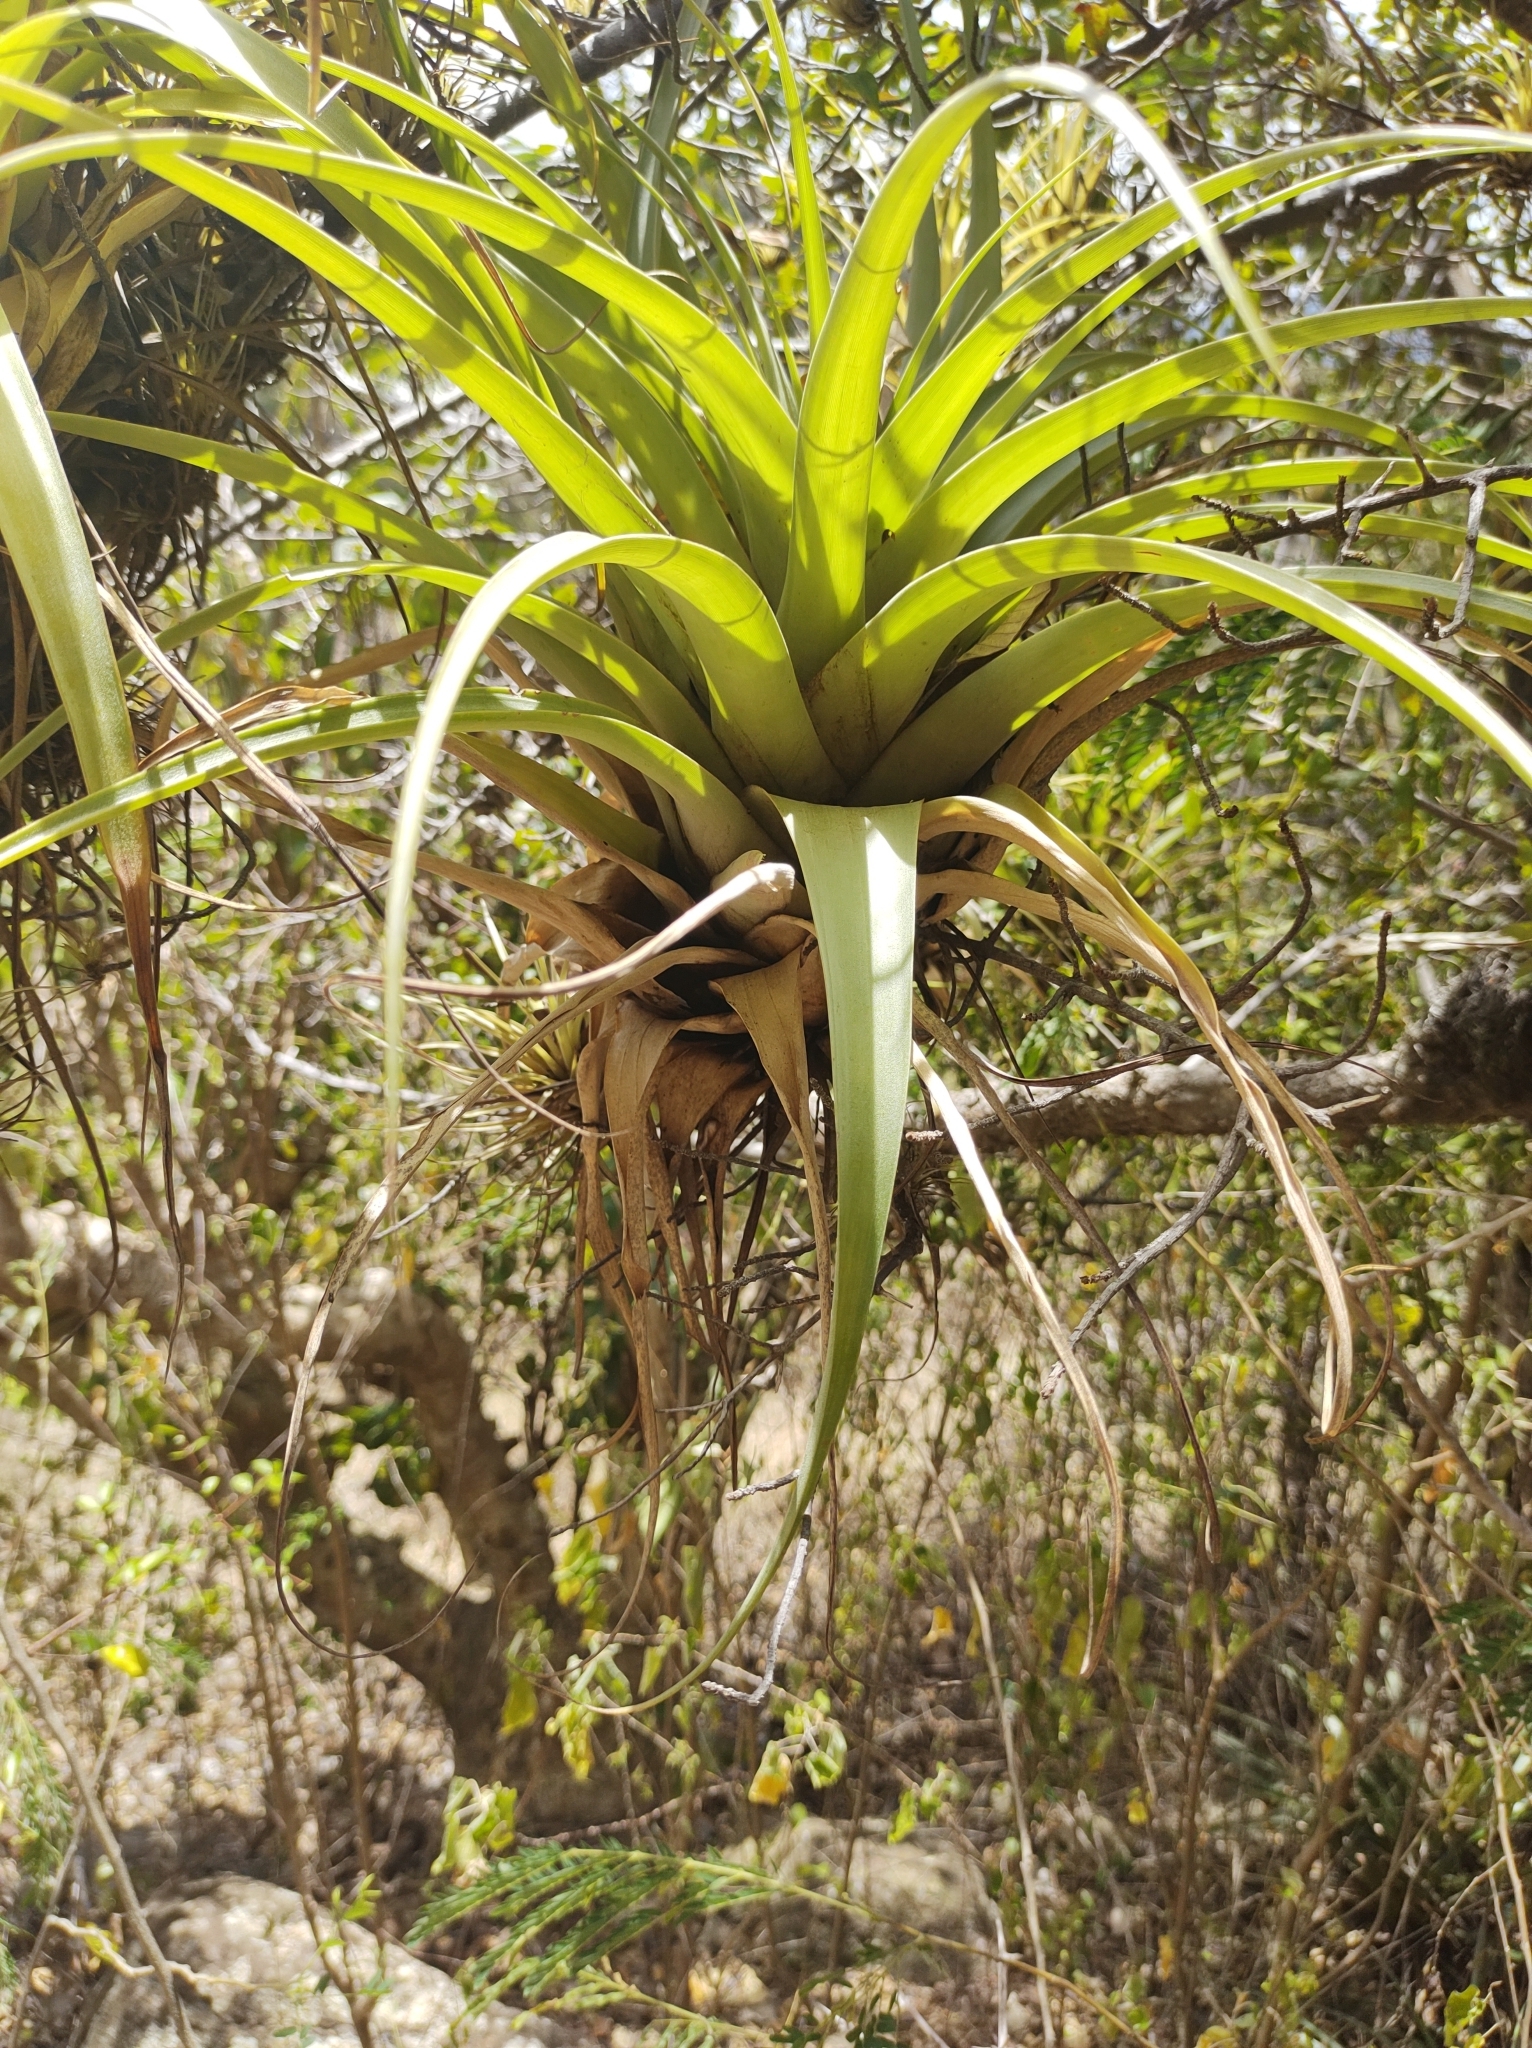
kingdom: Plantae
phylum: Tracheophyta
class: Liliopsida
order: Poales
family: Bromeliaceae
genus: Tillandsia
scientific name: Tillandsia utriculata
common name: Wild pine
